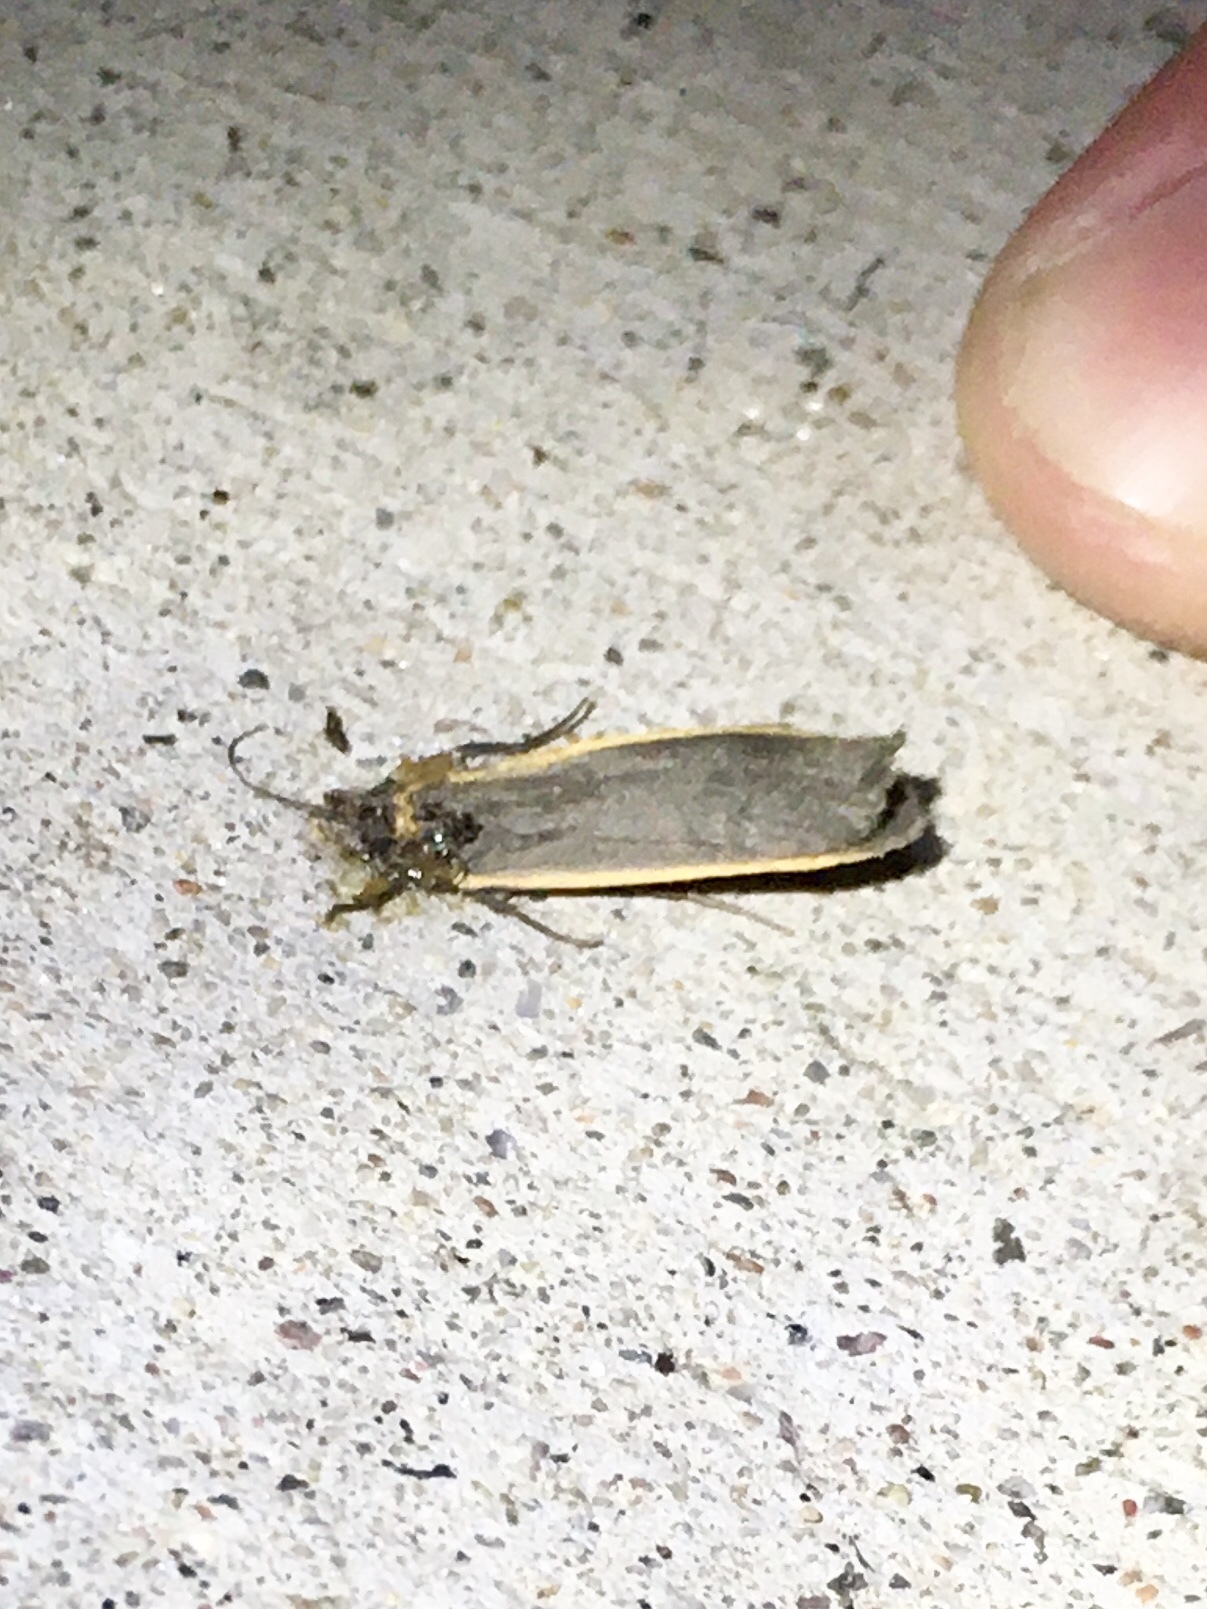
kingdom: Animalia
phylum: Arthropoda
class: Insecta
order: Lepidoptera
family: Erebidae
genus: Manulea
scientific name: Manulea bicolor
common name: Bicolored moth
